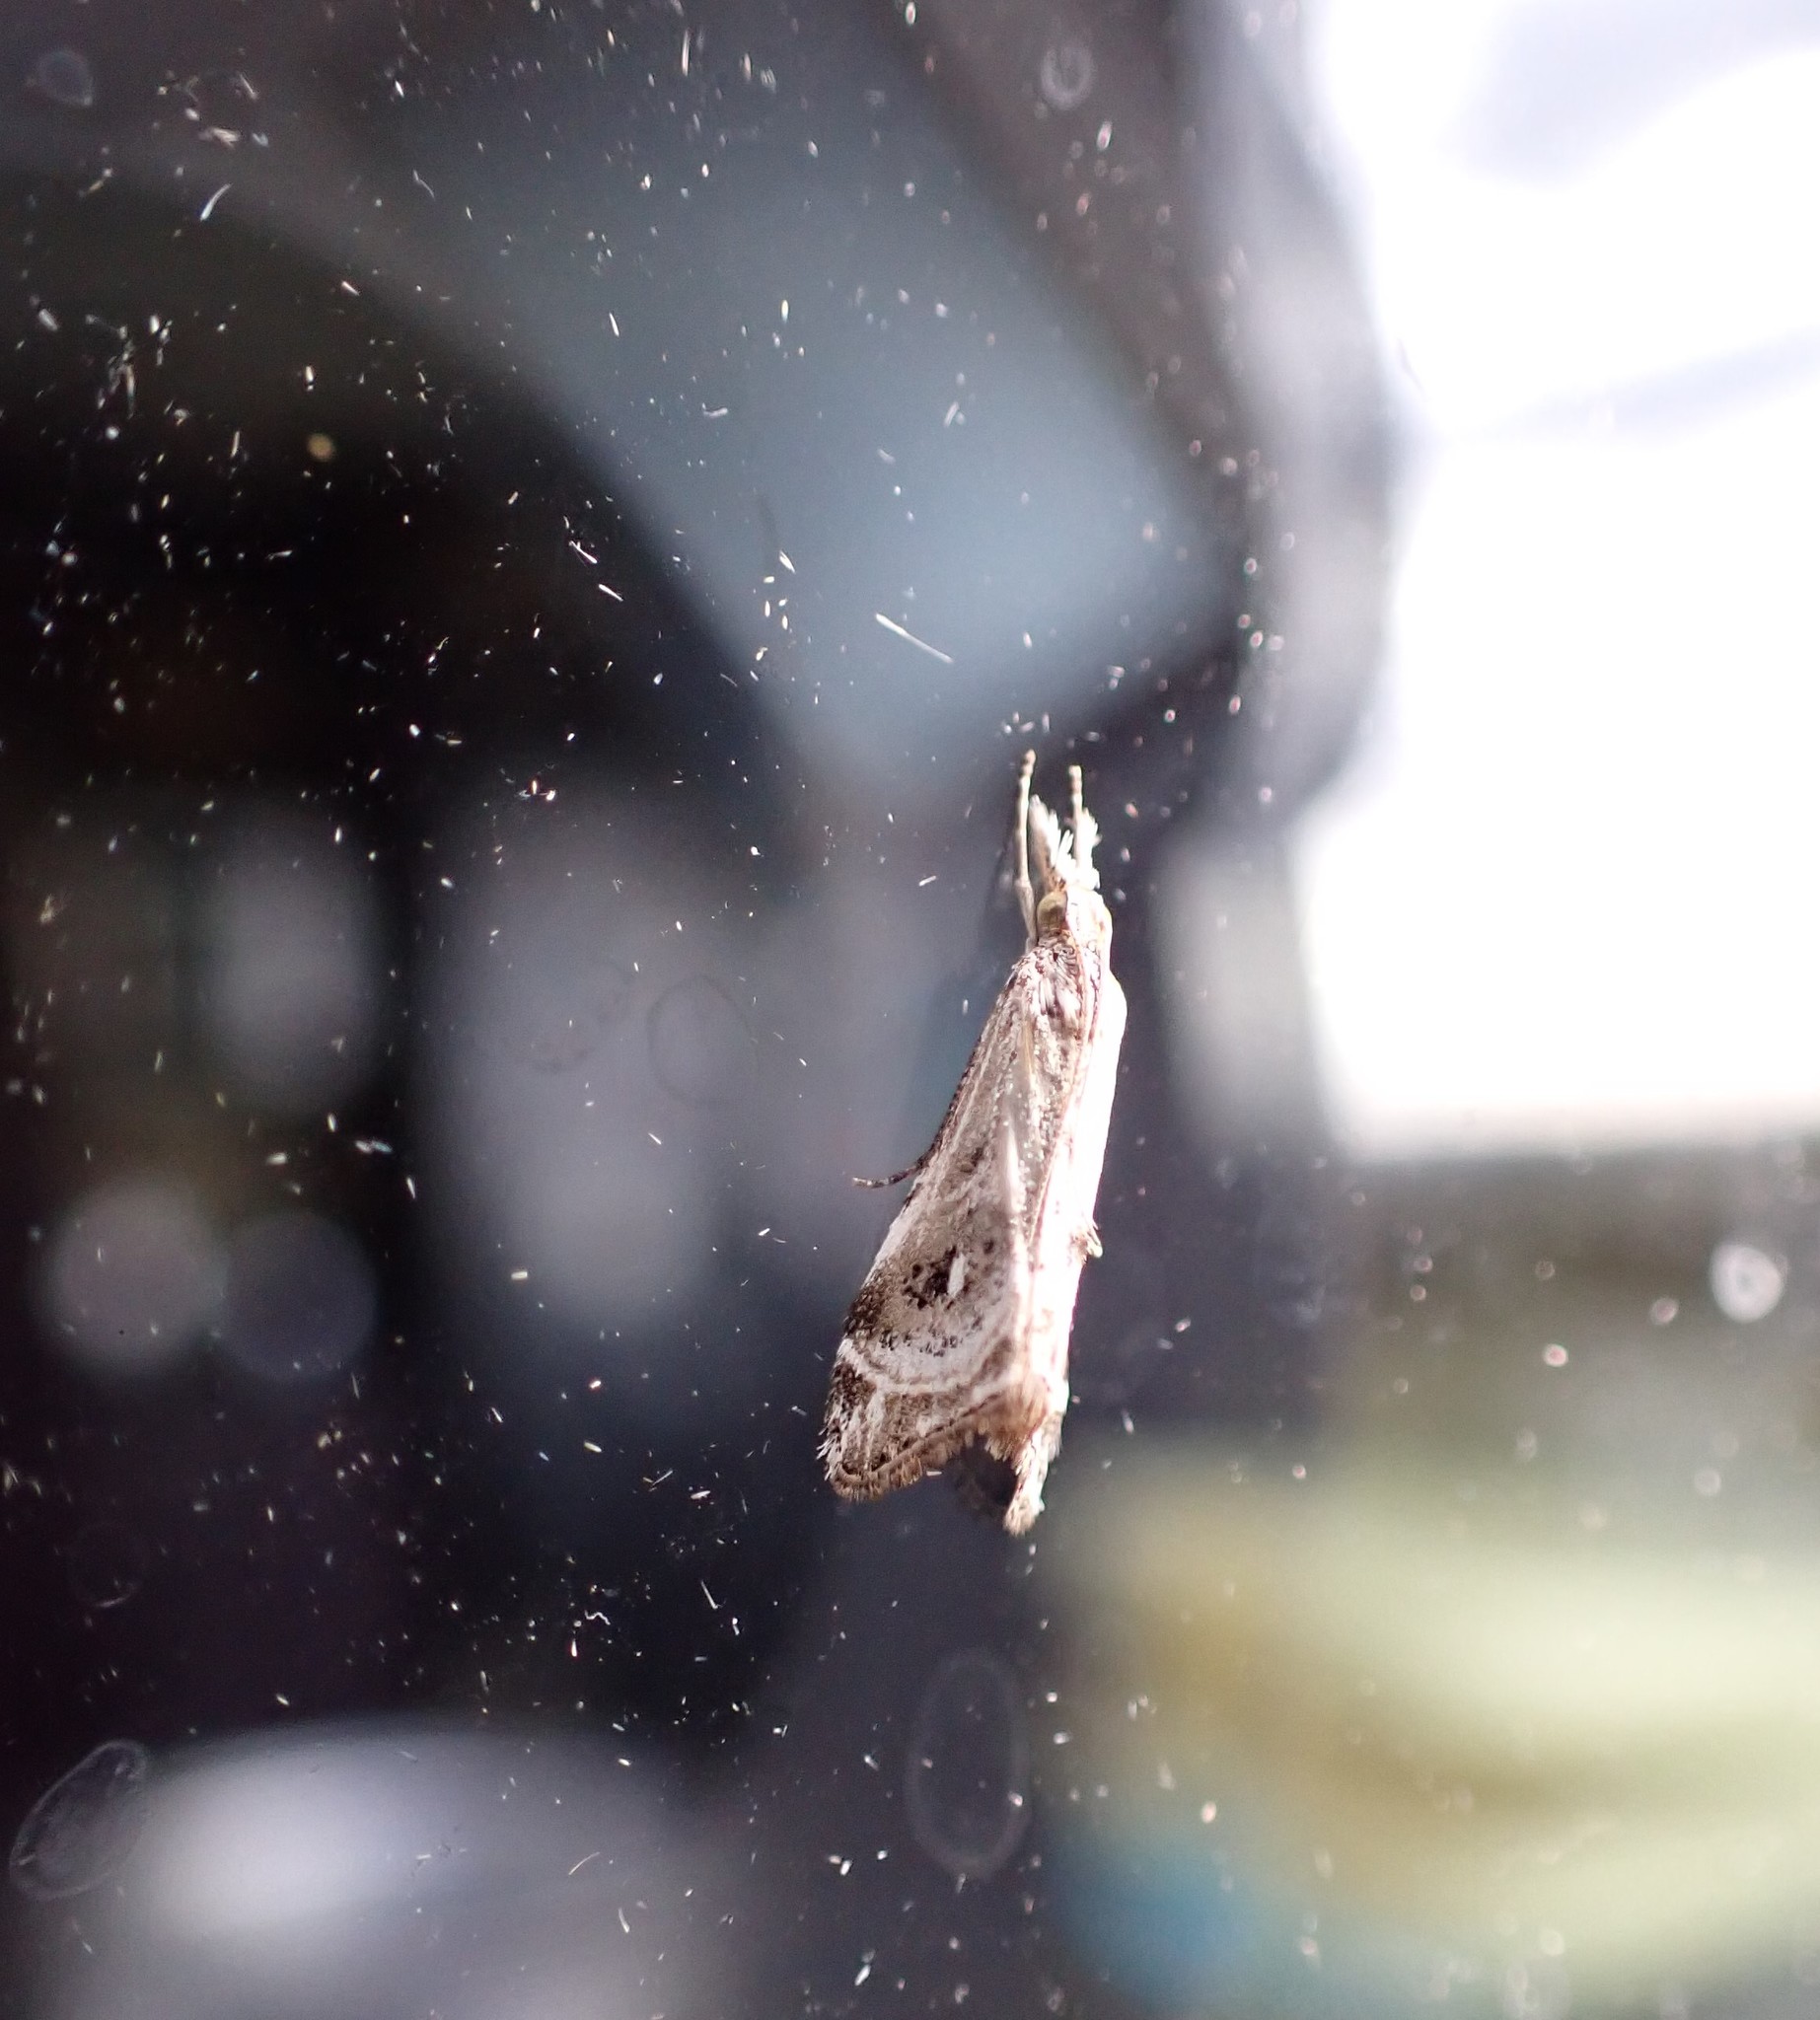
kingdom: Animalia
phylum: Arthropoda
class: Insecta
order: Lepidoptera
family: Crambidae
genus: Gadira
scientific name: Gadira acerella
